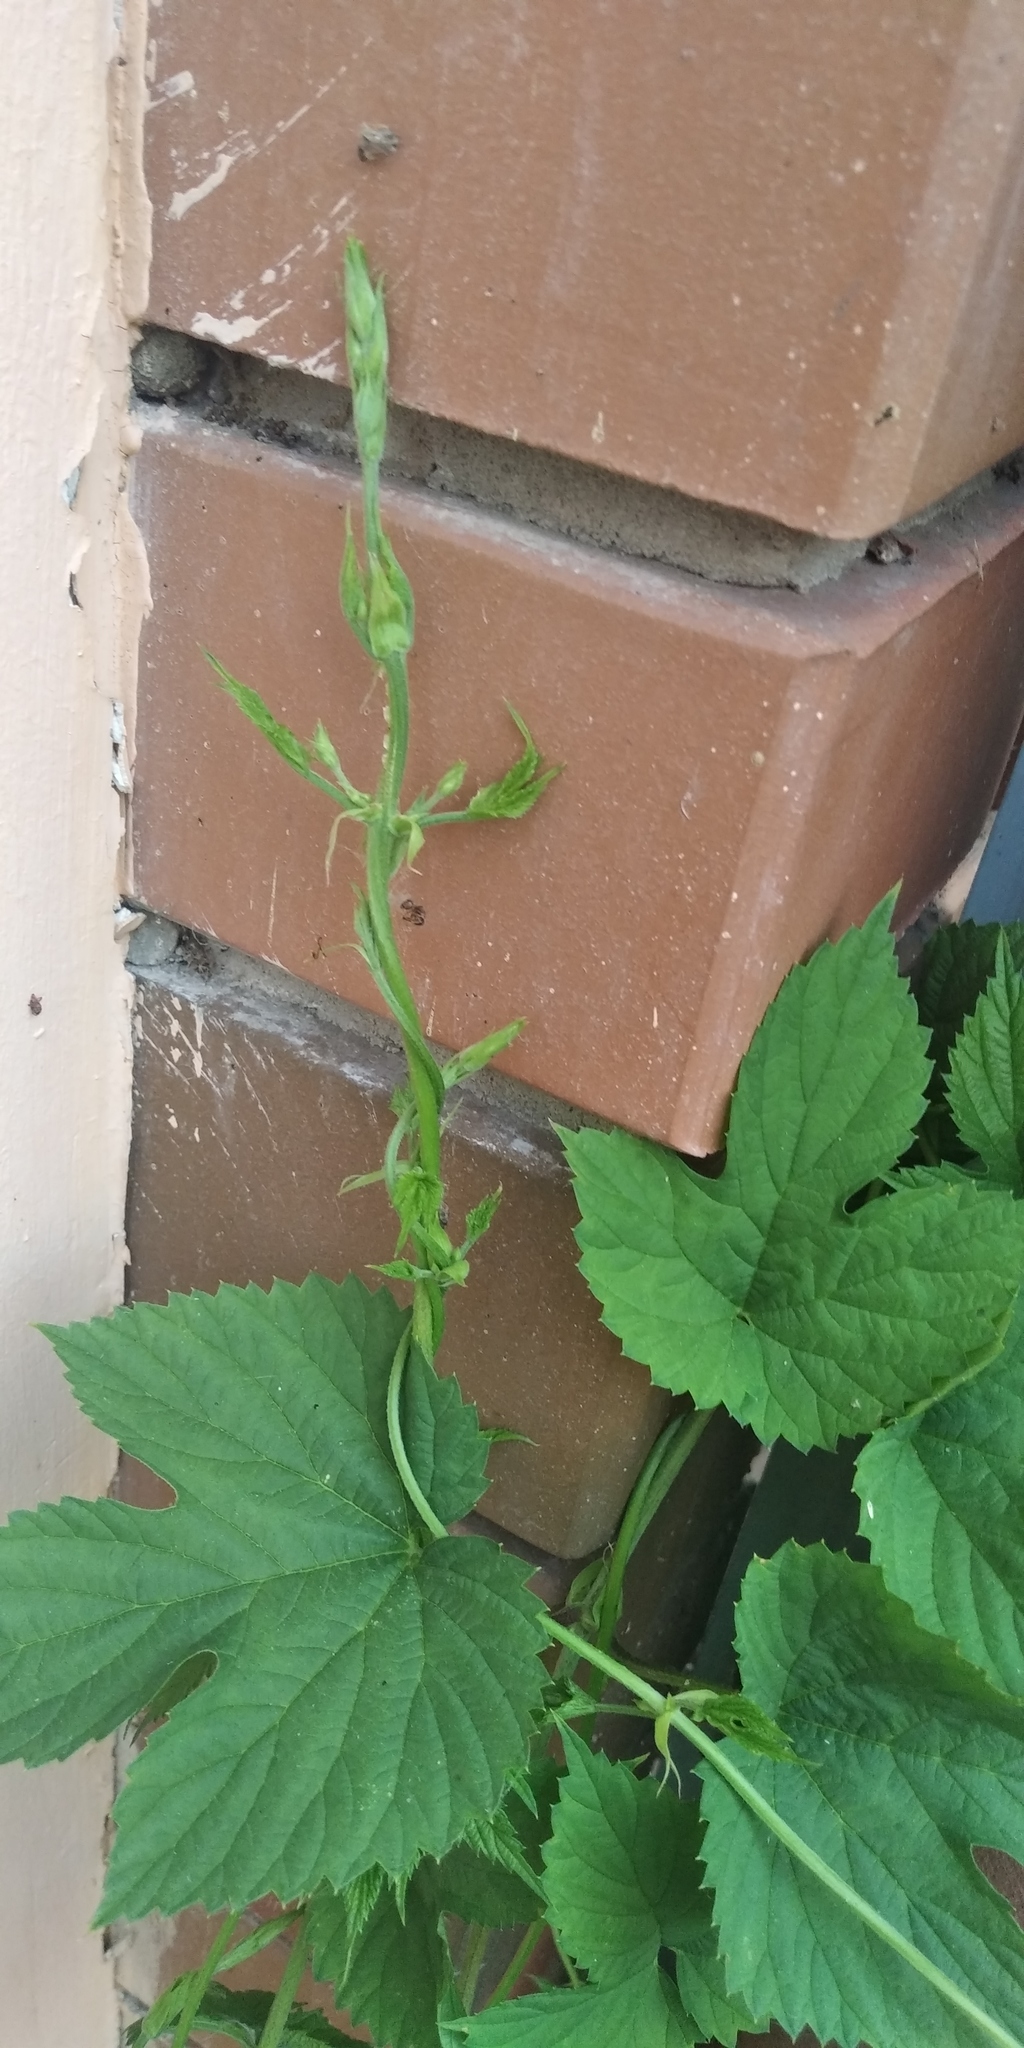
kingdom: Plantae
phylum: Tracheophyta
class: Magnoliopsida
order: Rosales
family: Cannabaceae
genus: Humulus
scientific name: Humulus lupulus
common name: Hop
